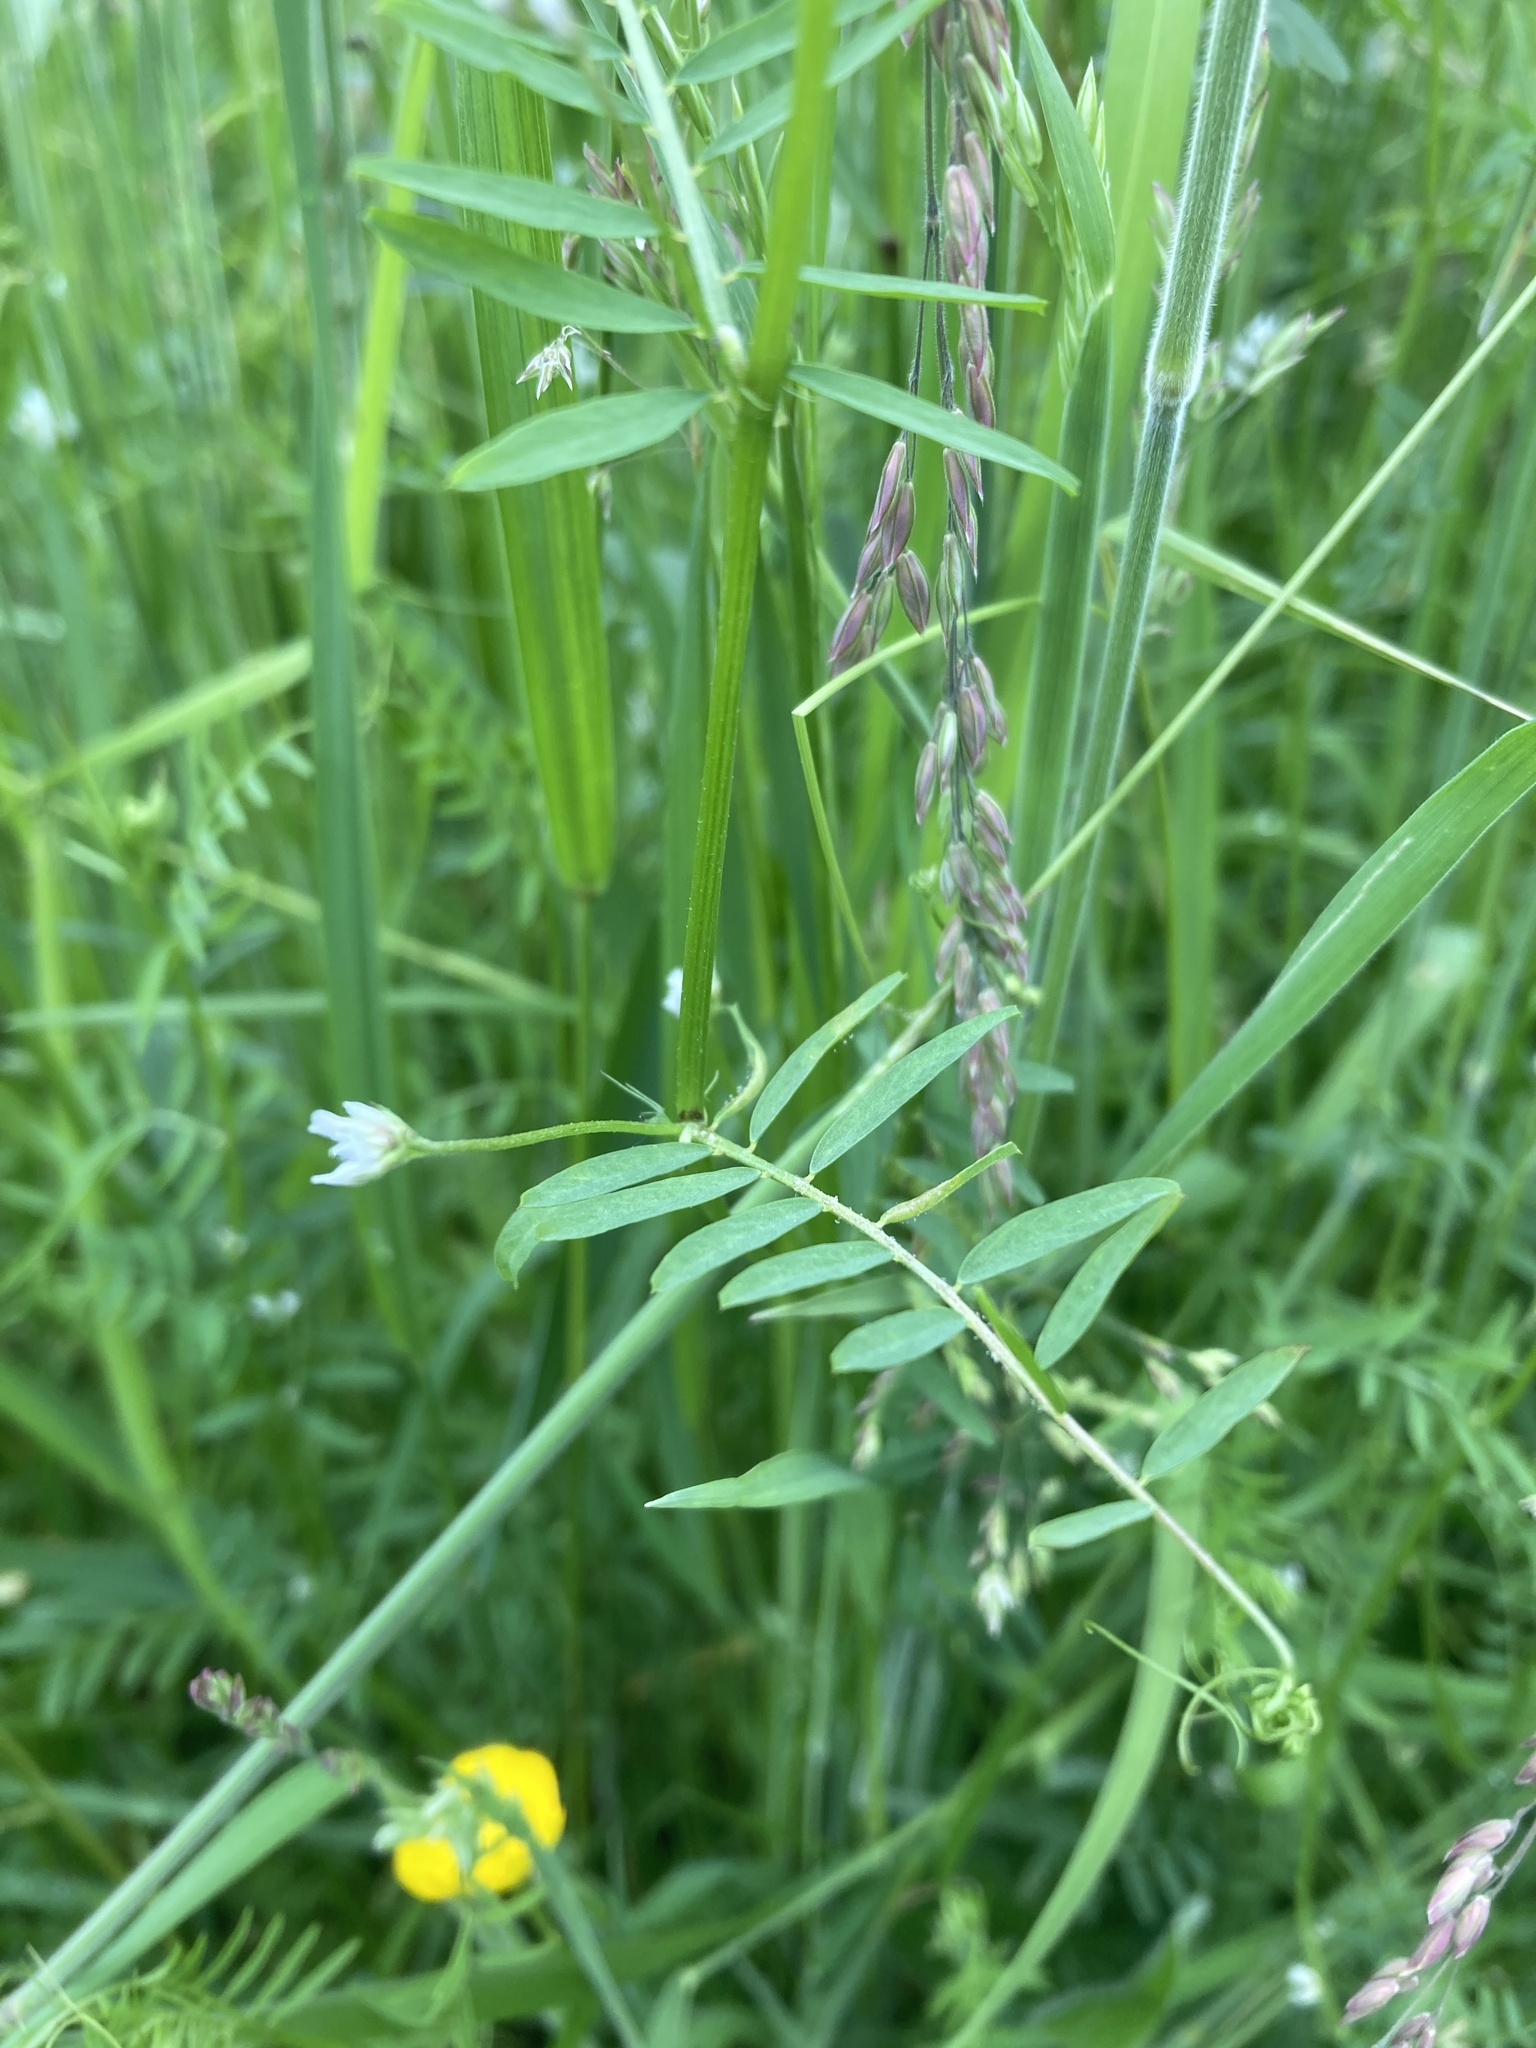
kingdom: Plantae
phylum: Tracheophyta
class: Magnoliopsida
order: Fabales
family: Fabaceae
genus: Vicia
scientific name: Vicia hirsuta
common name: Tiny vetch
